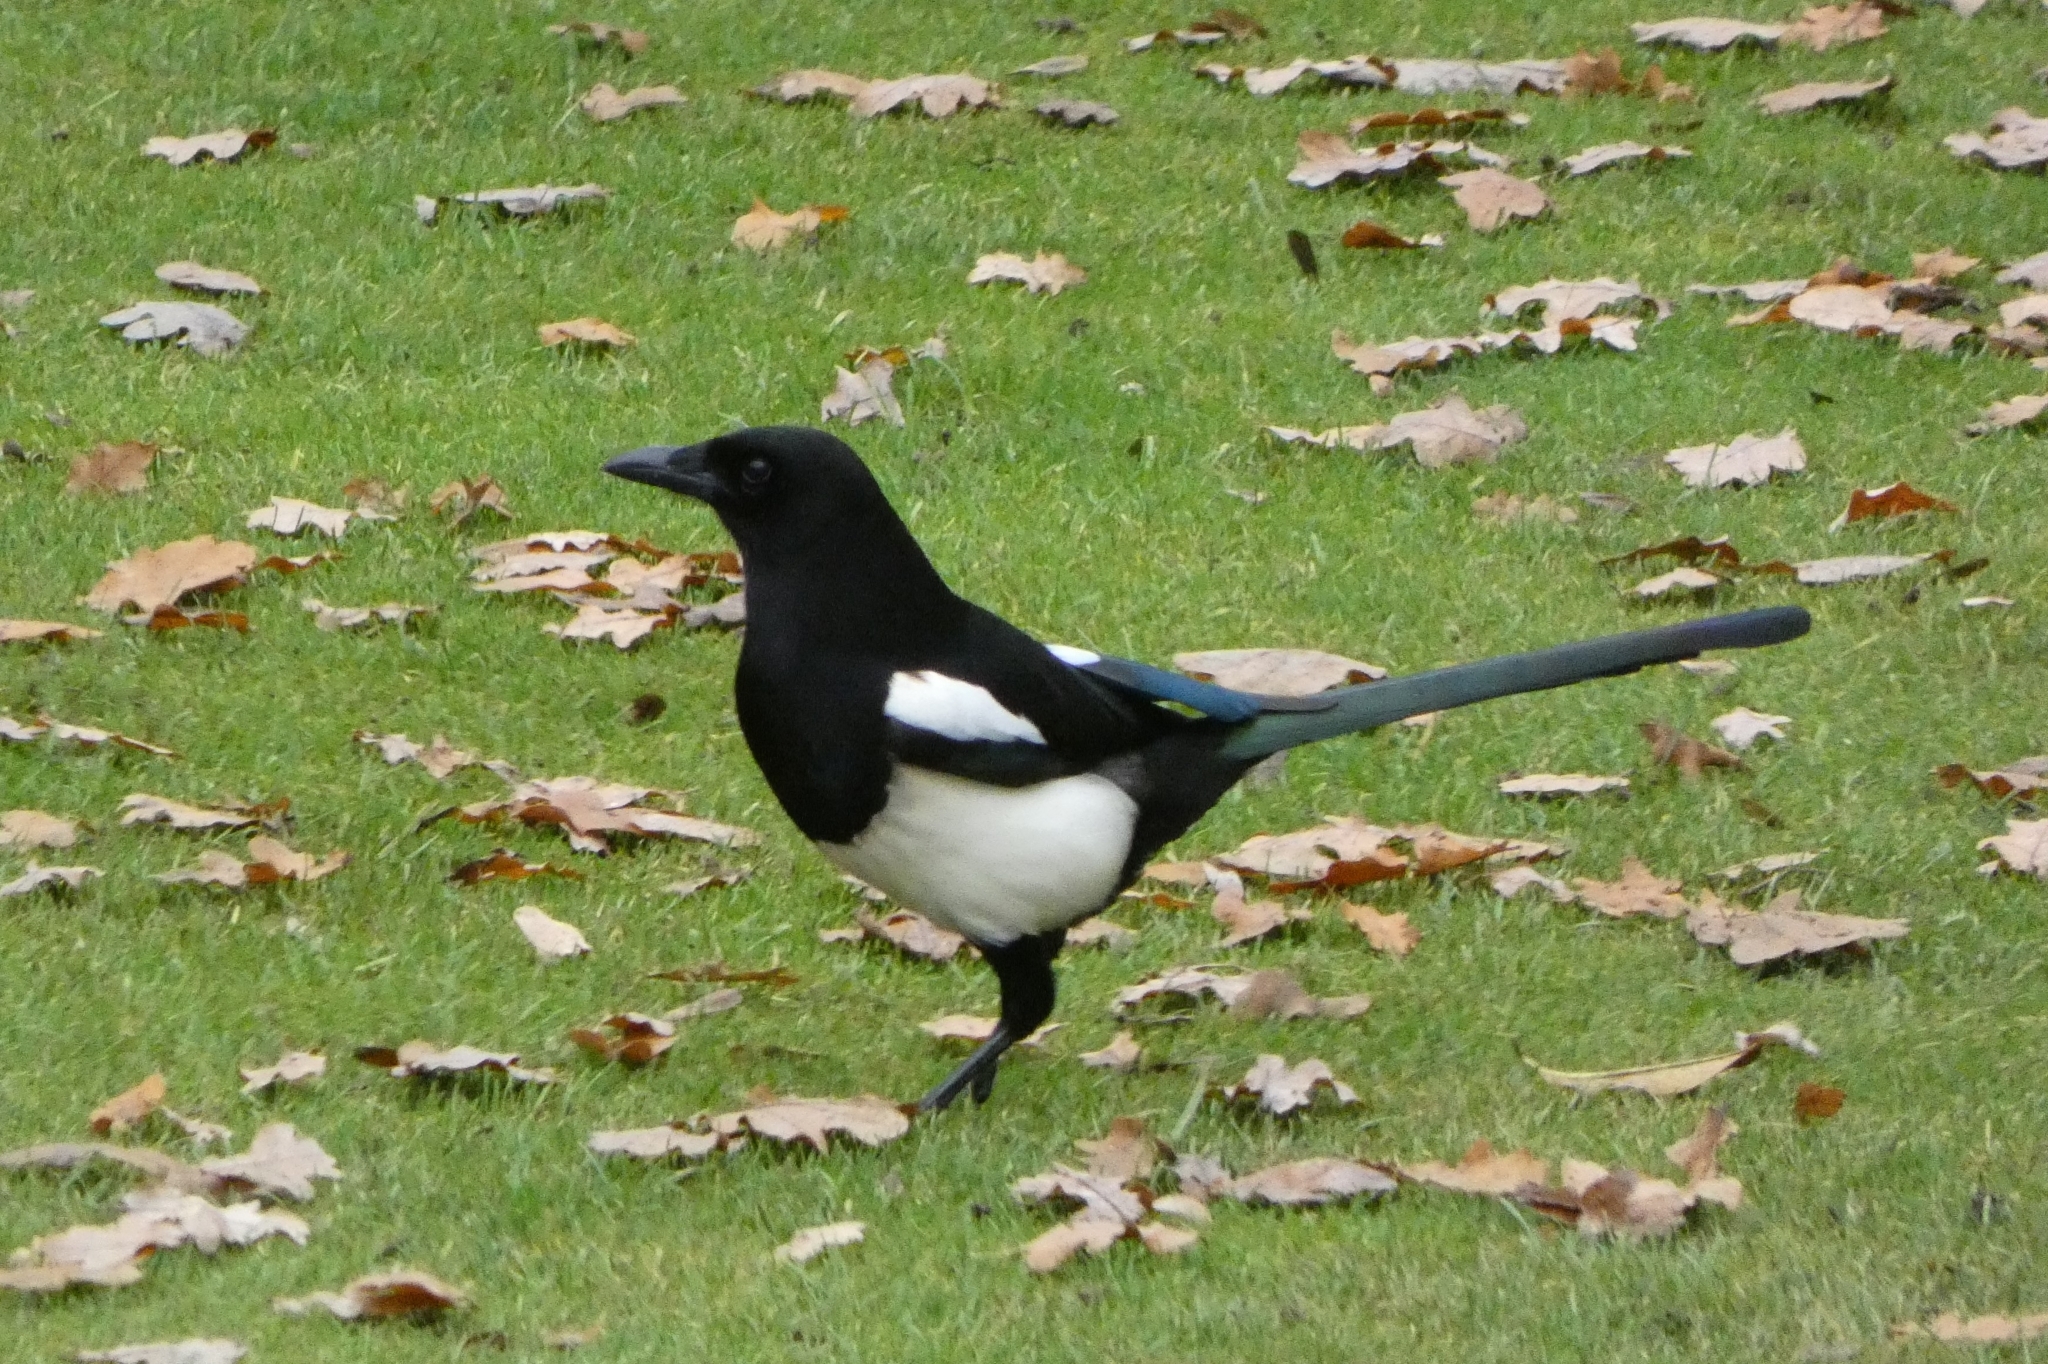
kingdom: Animalia
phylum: Chordata
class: Aves
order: Passeriformes
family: Corvidae
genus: Pica
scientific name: Pica pica
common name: Eurasian magpie
